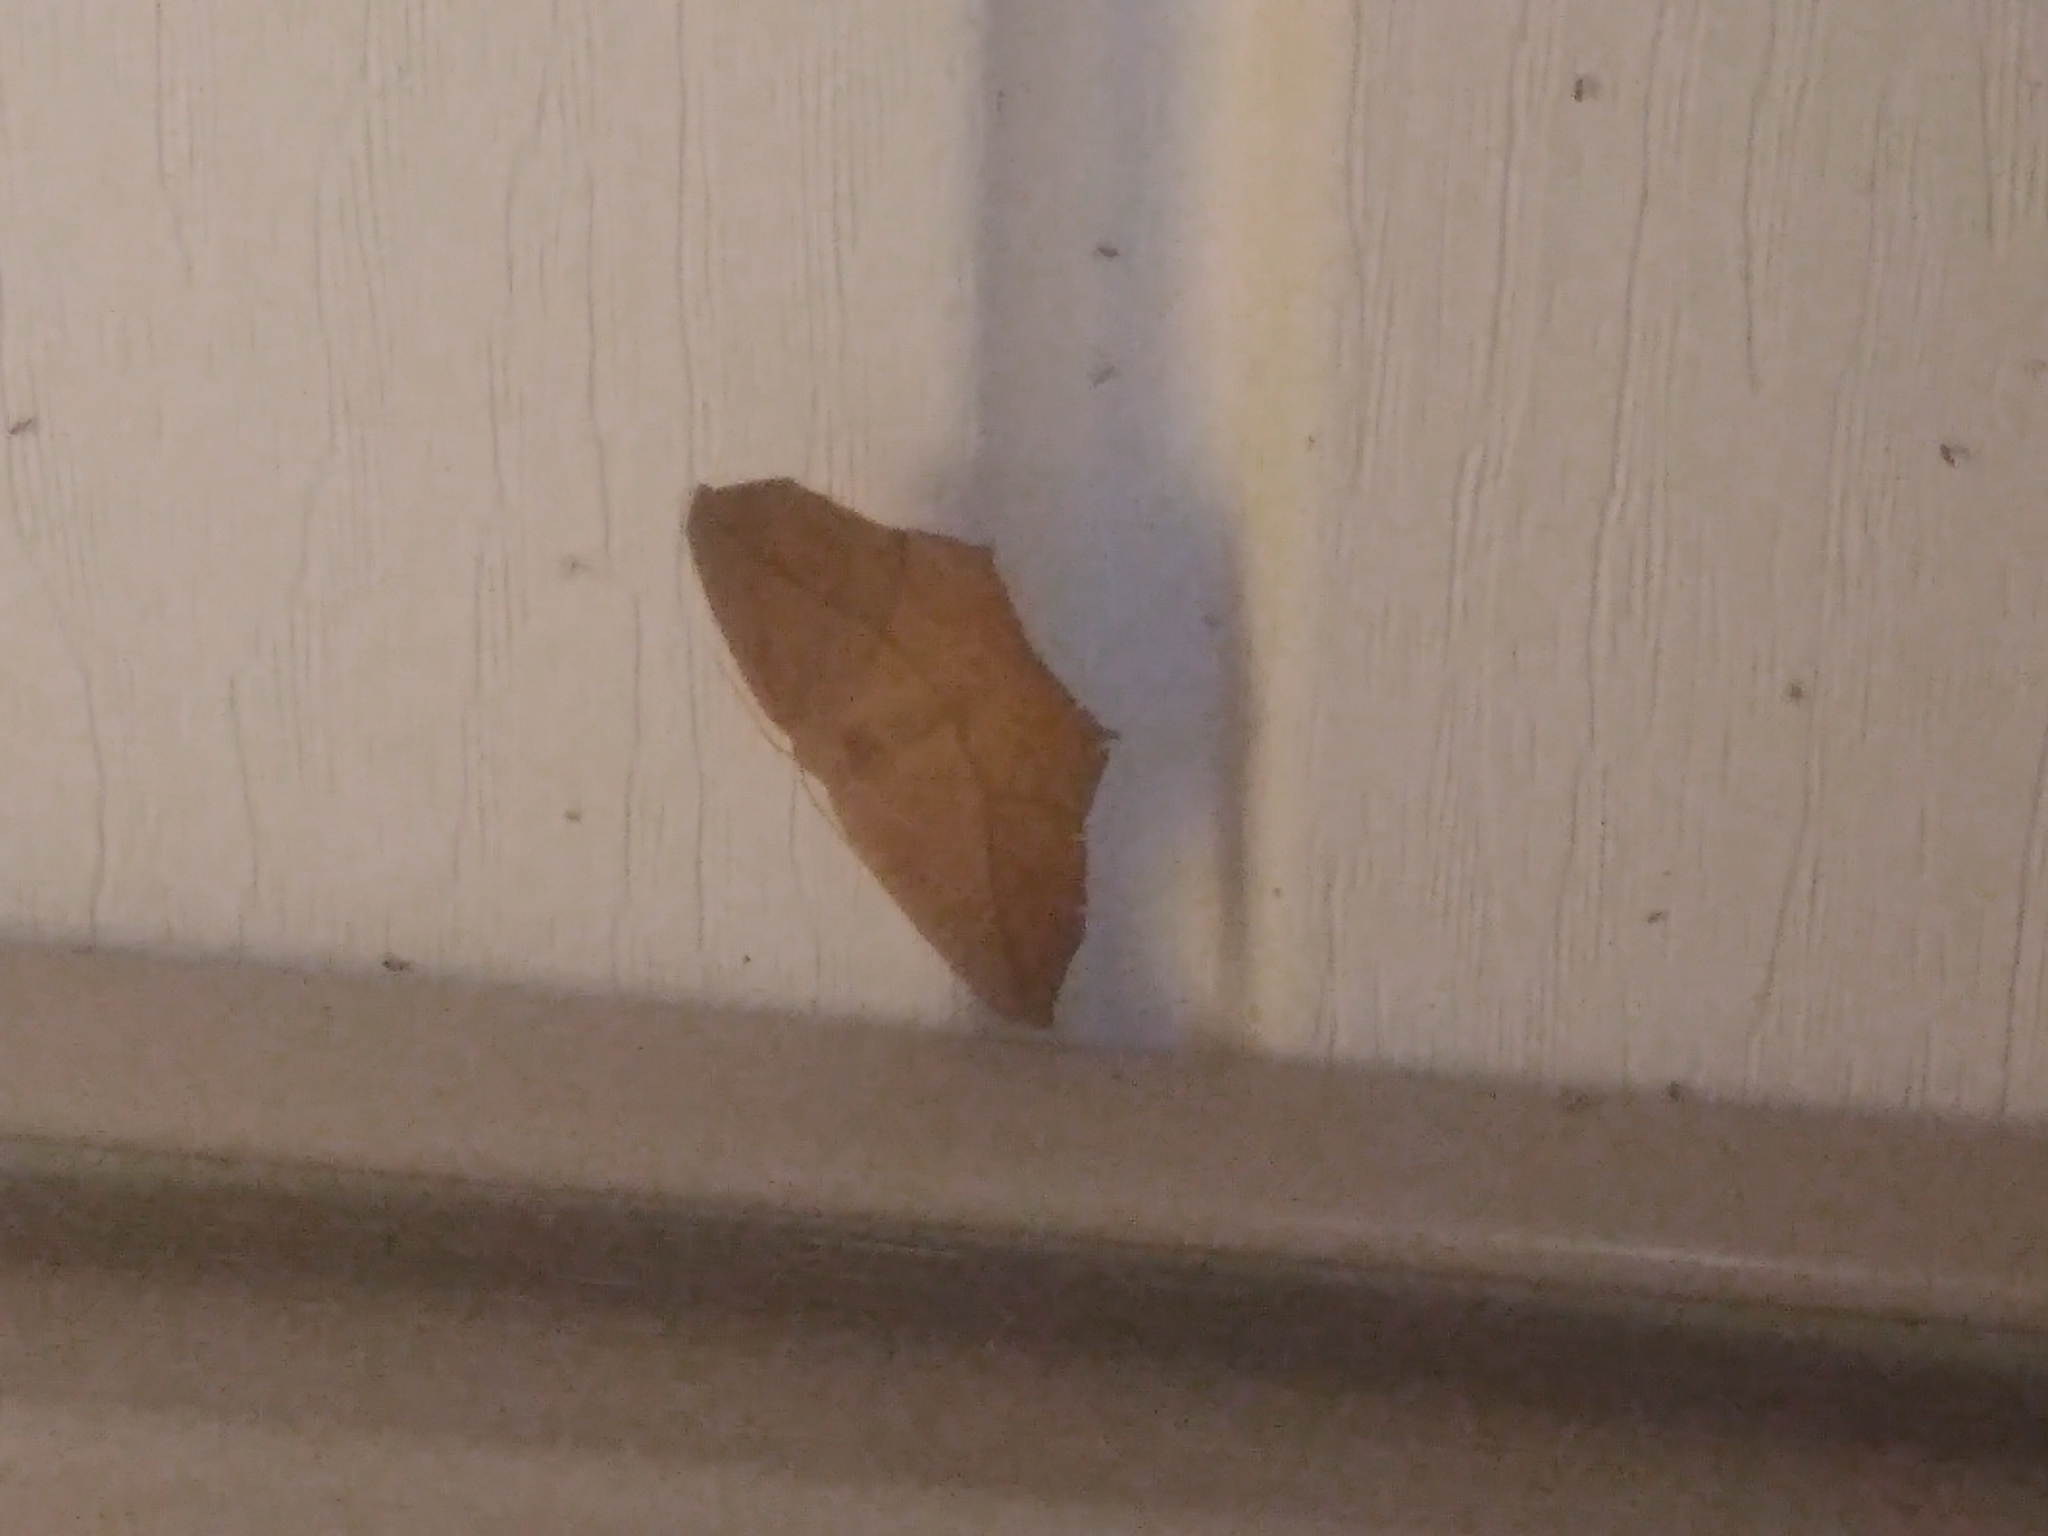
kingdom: Animalia
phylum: Arthropoda
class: Insecta
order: Lepidoptera
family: Geometridae
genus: Prochoerodes
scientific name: Prochoerodes lineola
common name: Large maple spanworm
